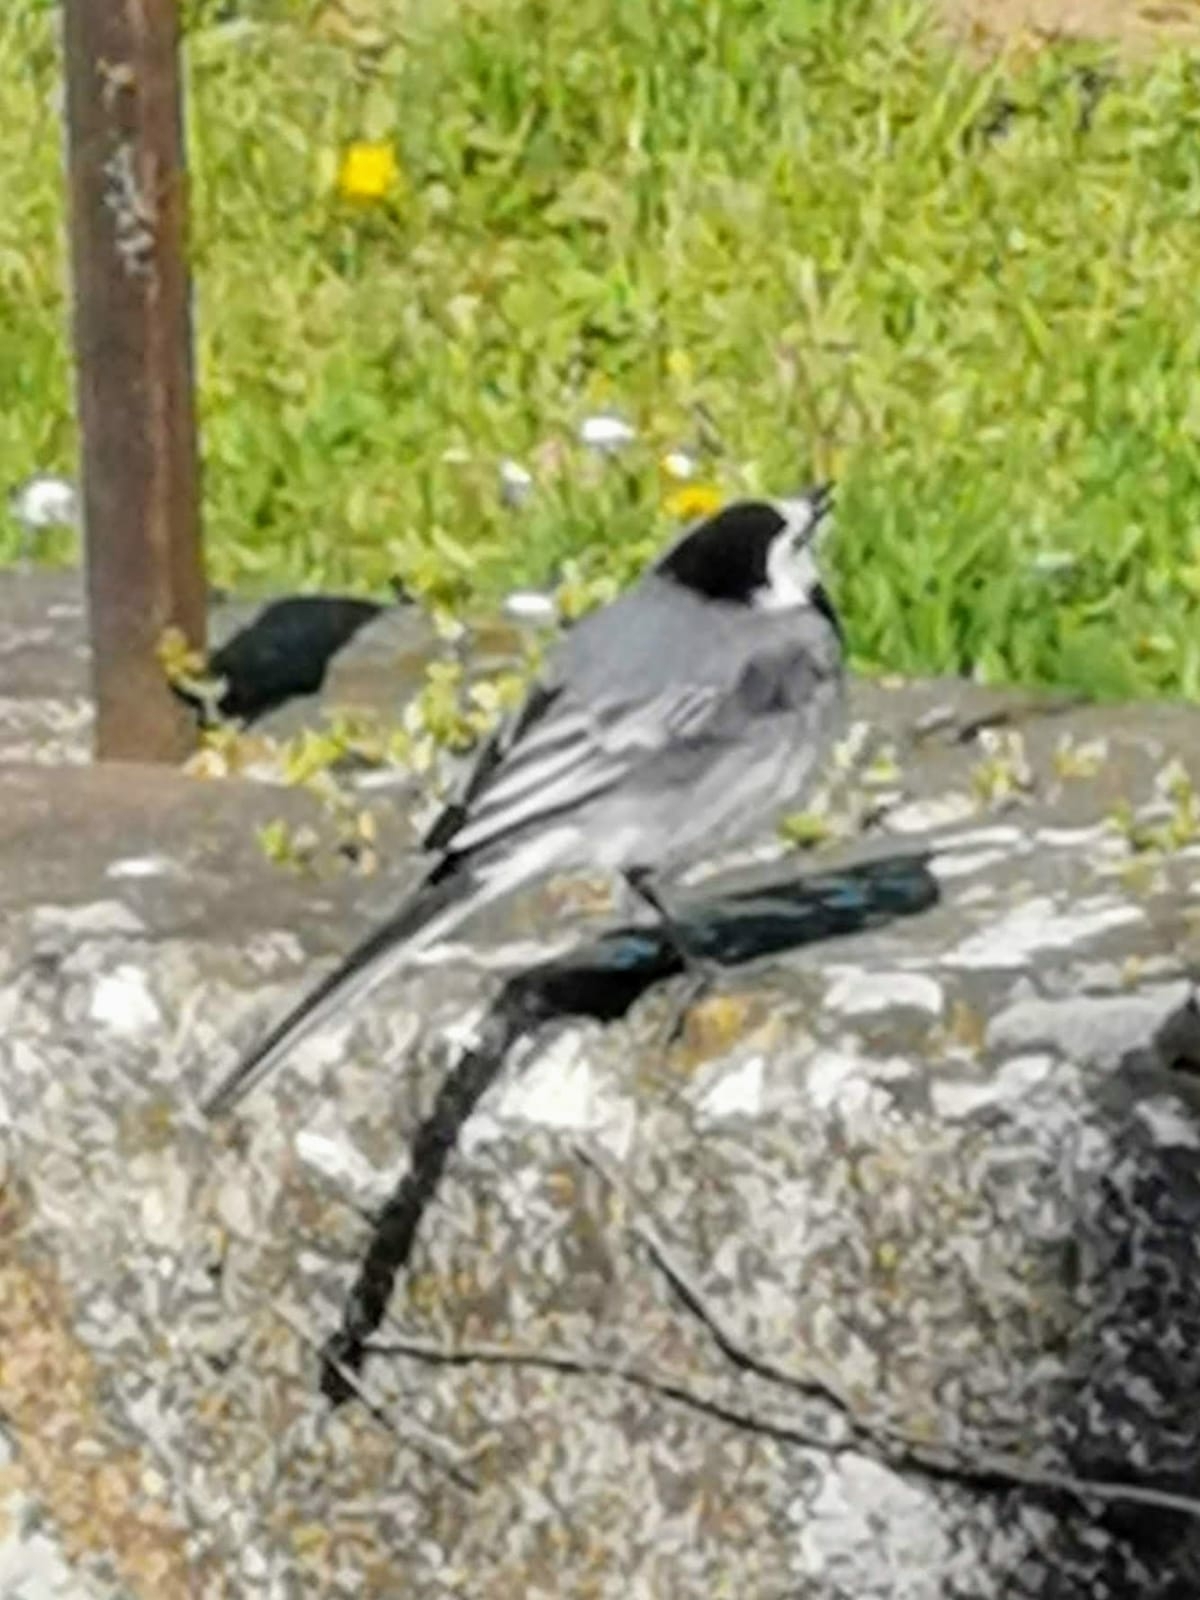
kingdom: Animalia
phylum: Chordata
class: Aves
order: Passeriformes
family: Motacillidae
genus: Motacilla
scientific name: Motacilla alba
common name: White wagtail
